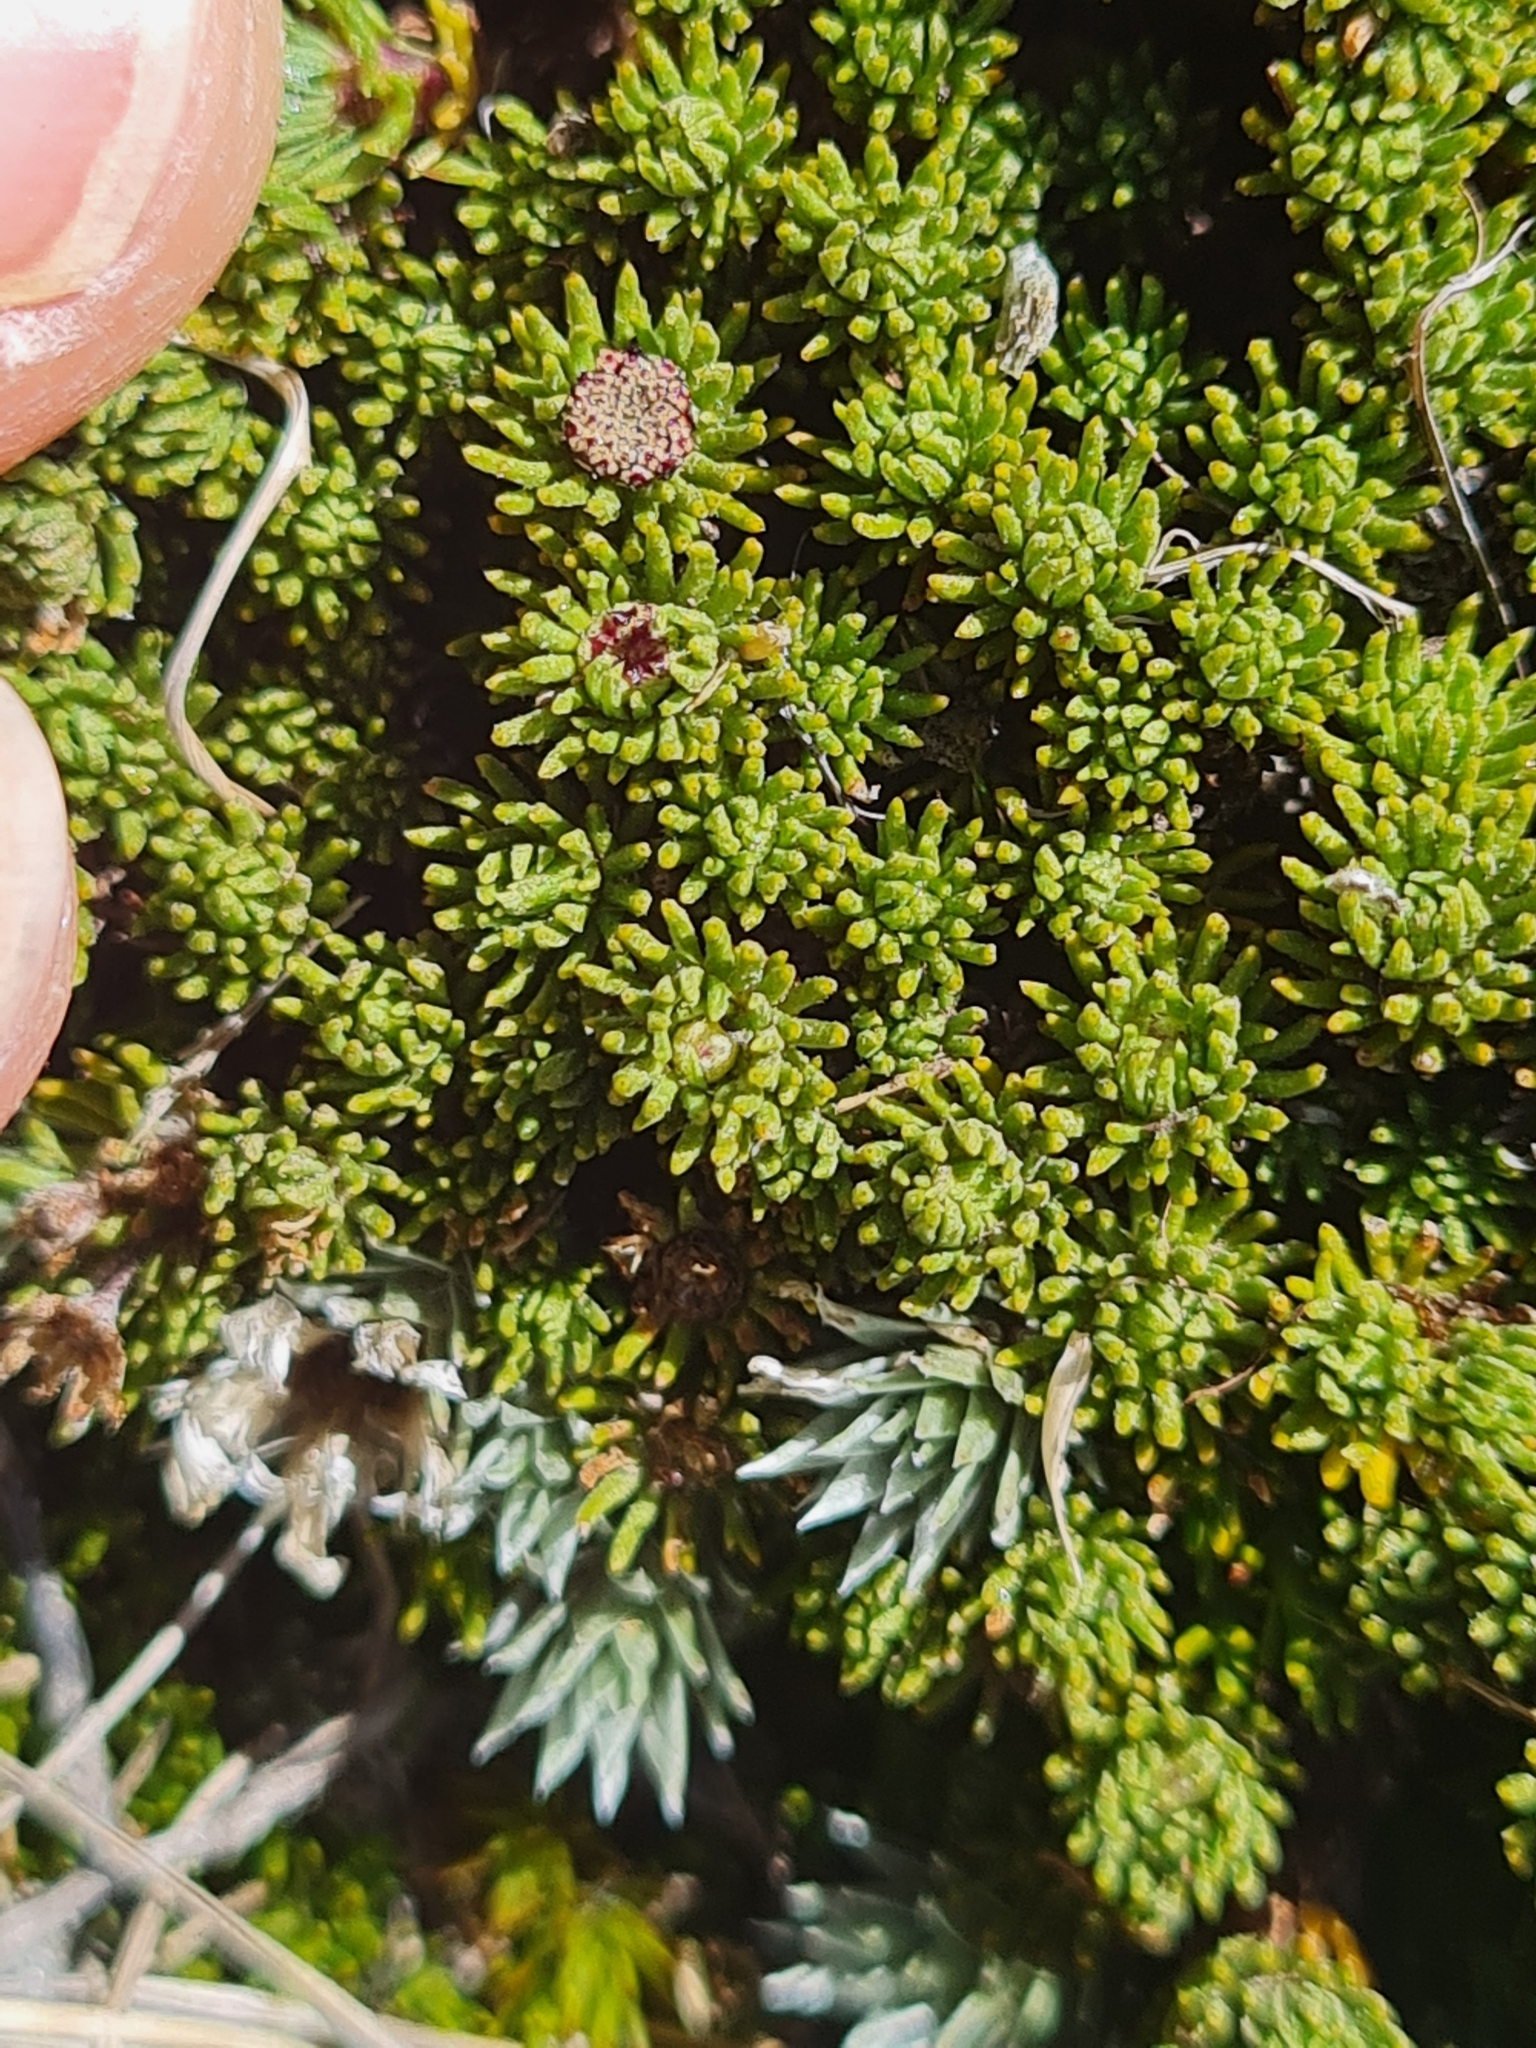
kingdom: Plantae
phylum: Tracheophyta
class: Magnoliopsida
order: Asterales
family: Asteraceae
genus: Leptinella
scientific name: Leptinella goyenii
